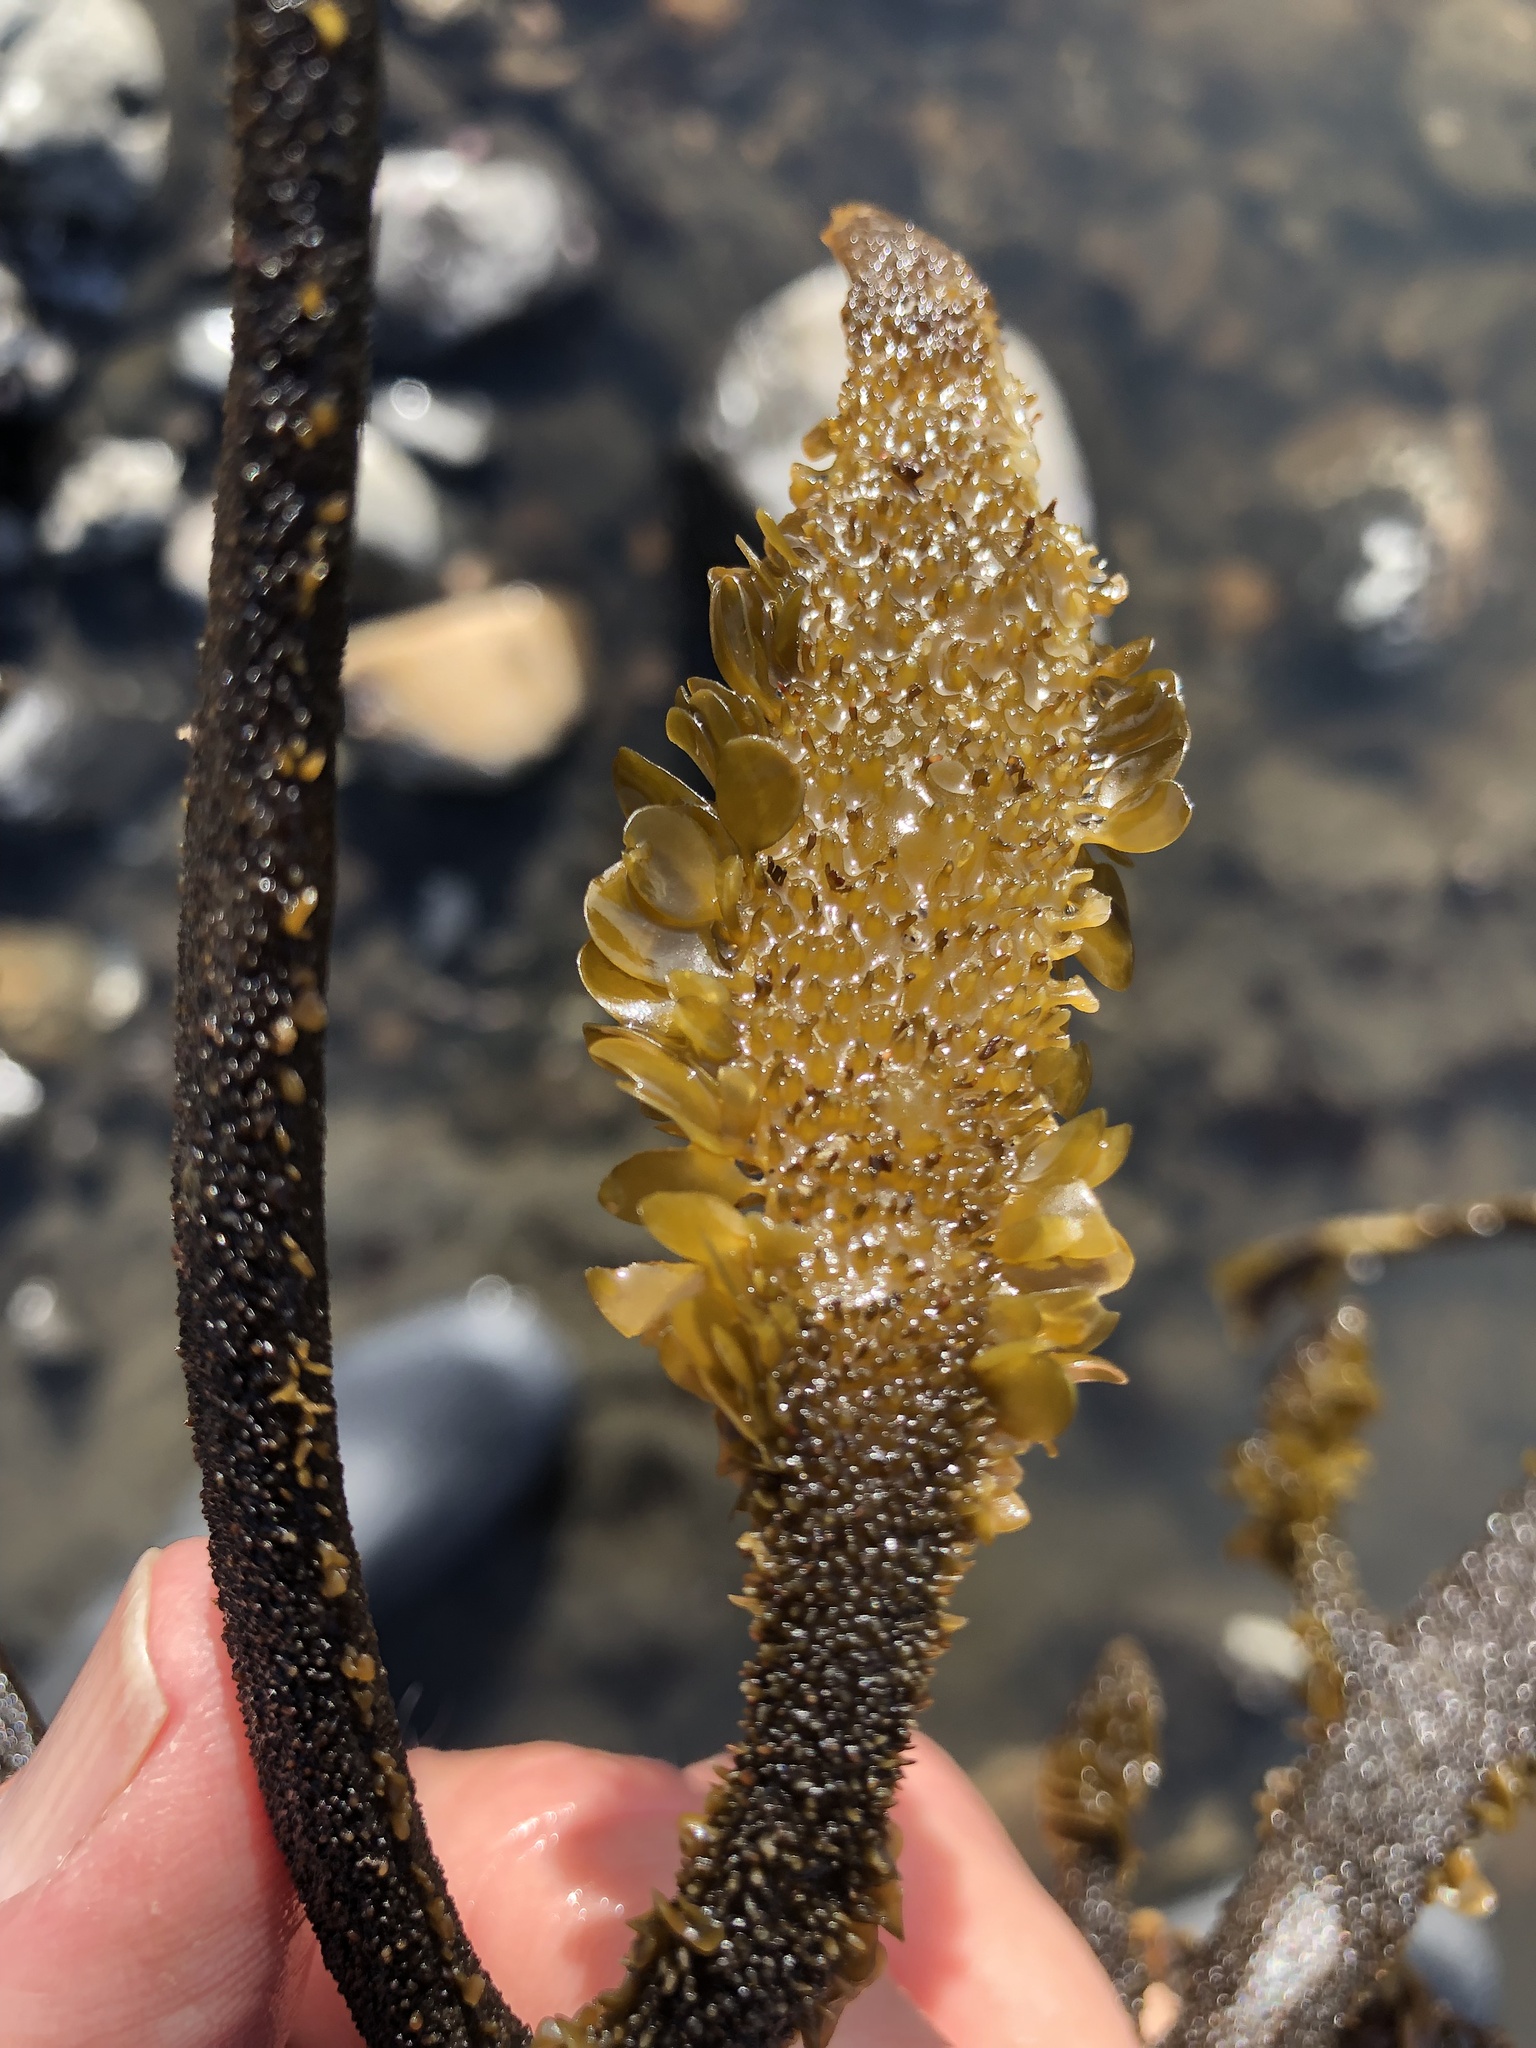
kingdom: Chromista
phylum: Ochrophyta
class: Phaeophyceae
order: Laminariales
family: Lessoniaceae
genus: Egregia
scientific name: Egregia menziesii
